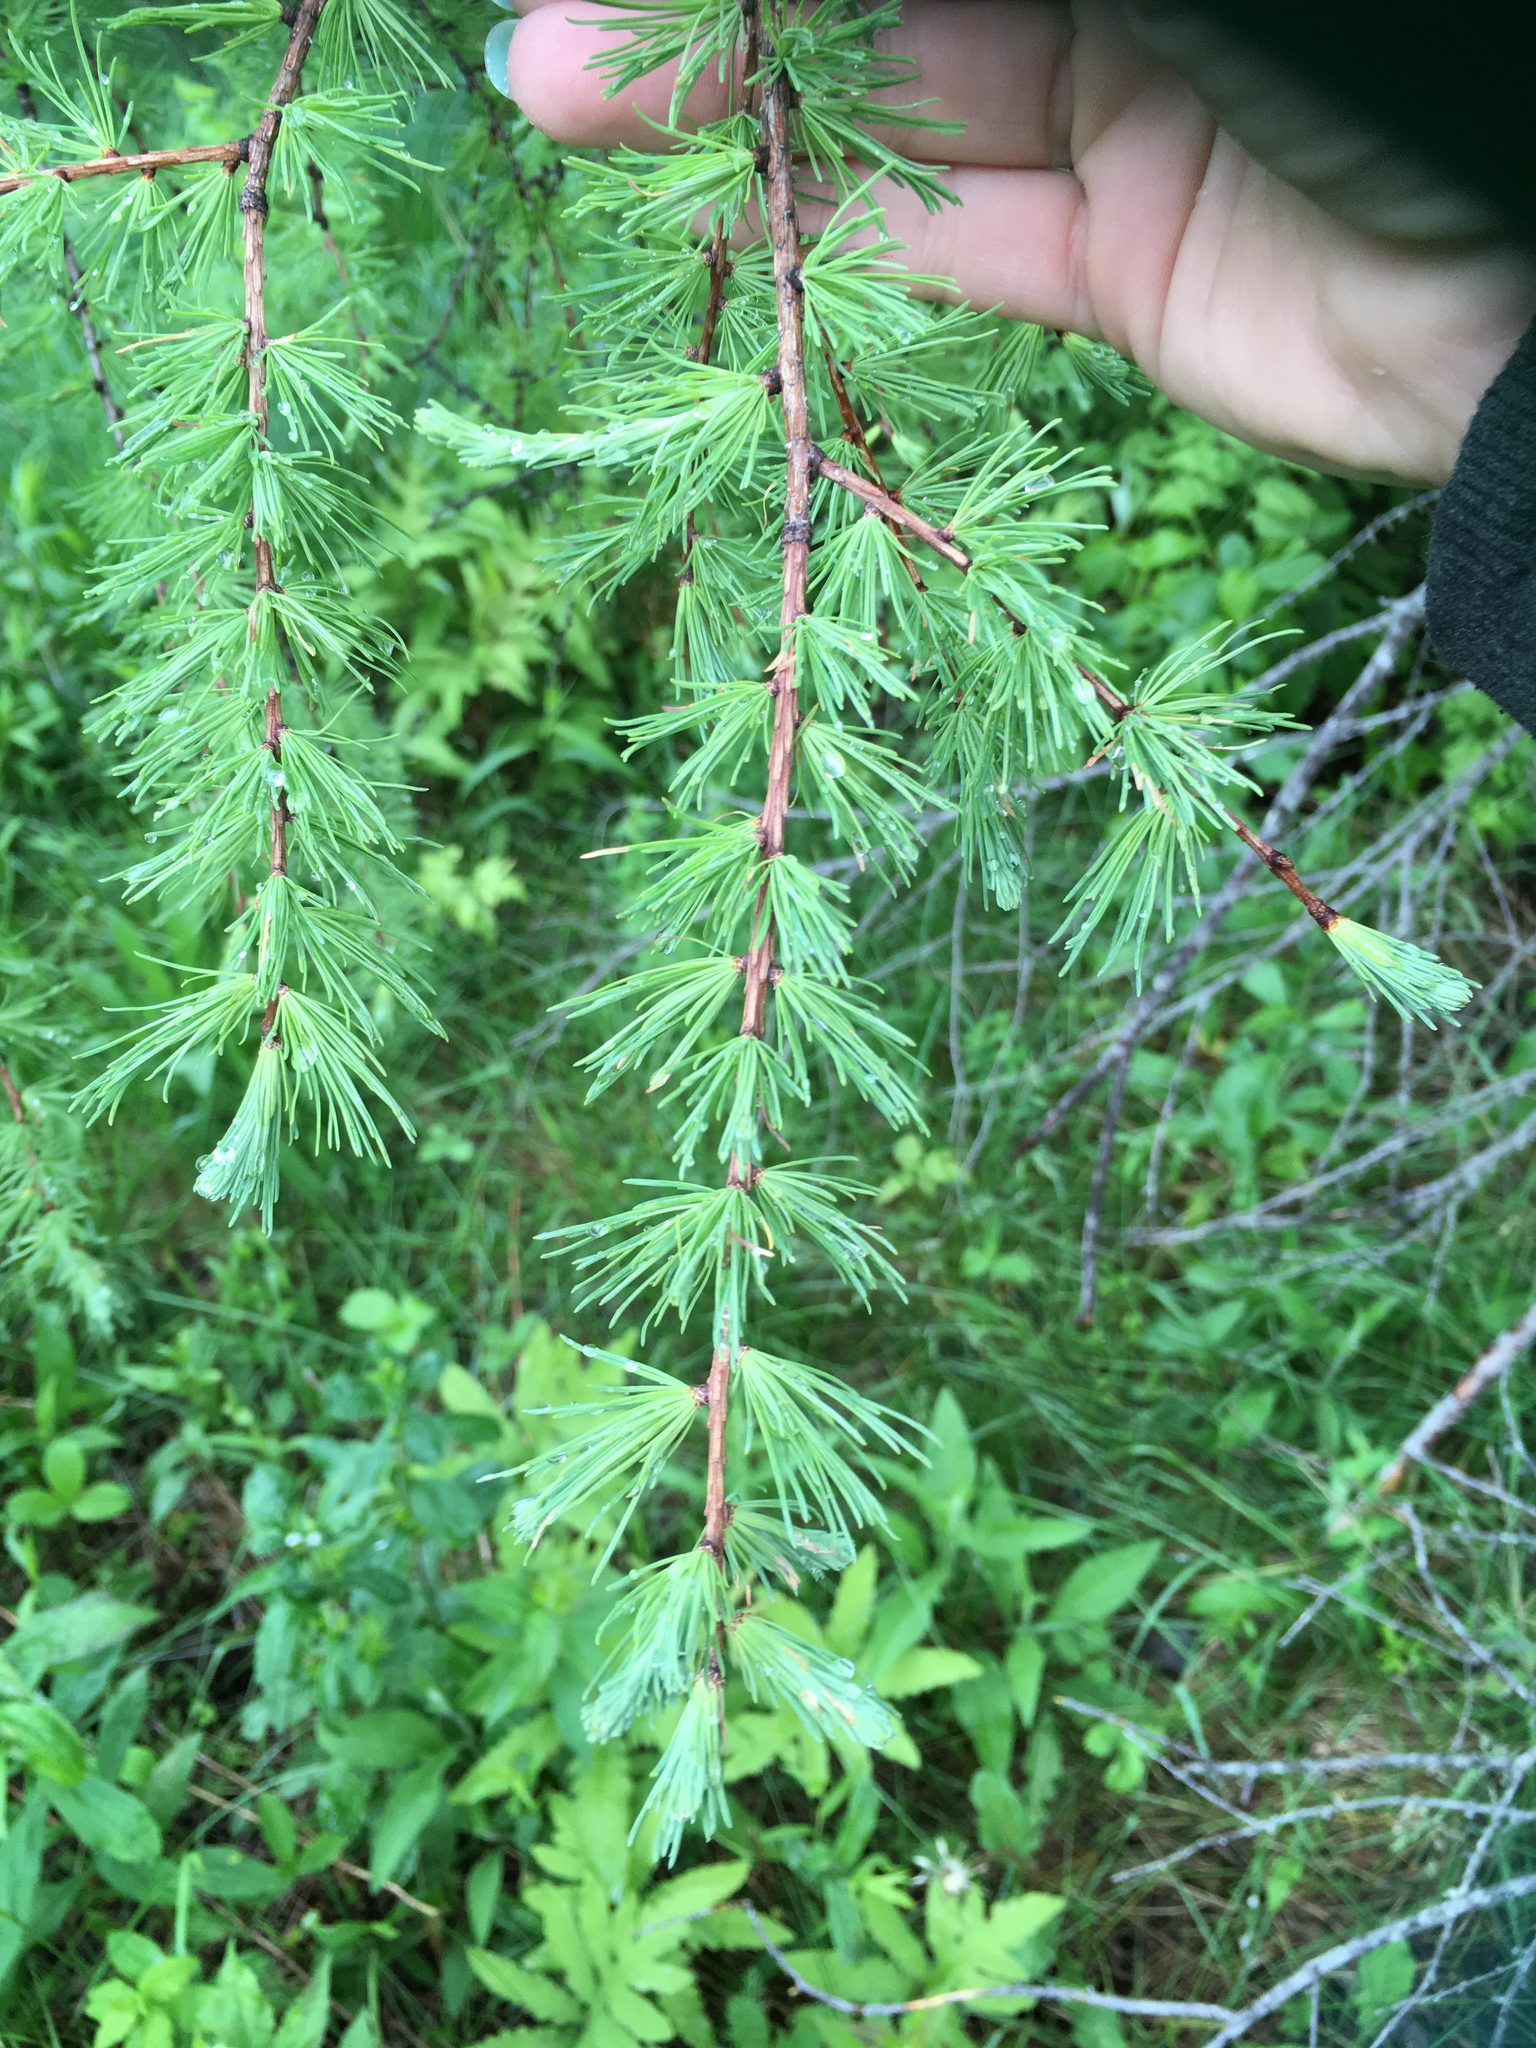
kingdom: Plantae
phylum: Tracheophyta
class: Pinopsida
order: Pinales
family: Pinaceae
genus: Larix
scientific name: Larix laricina
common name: American larch
